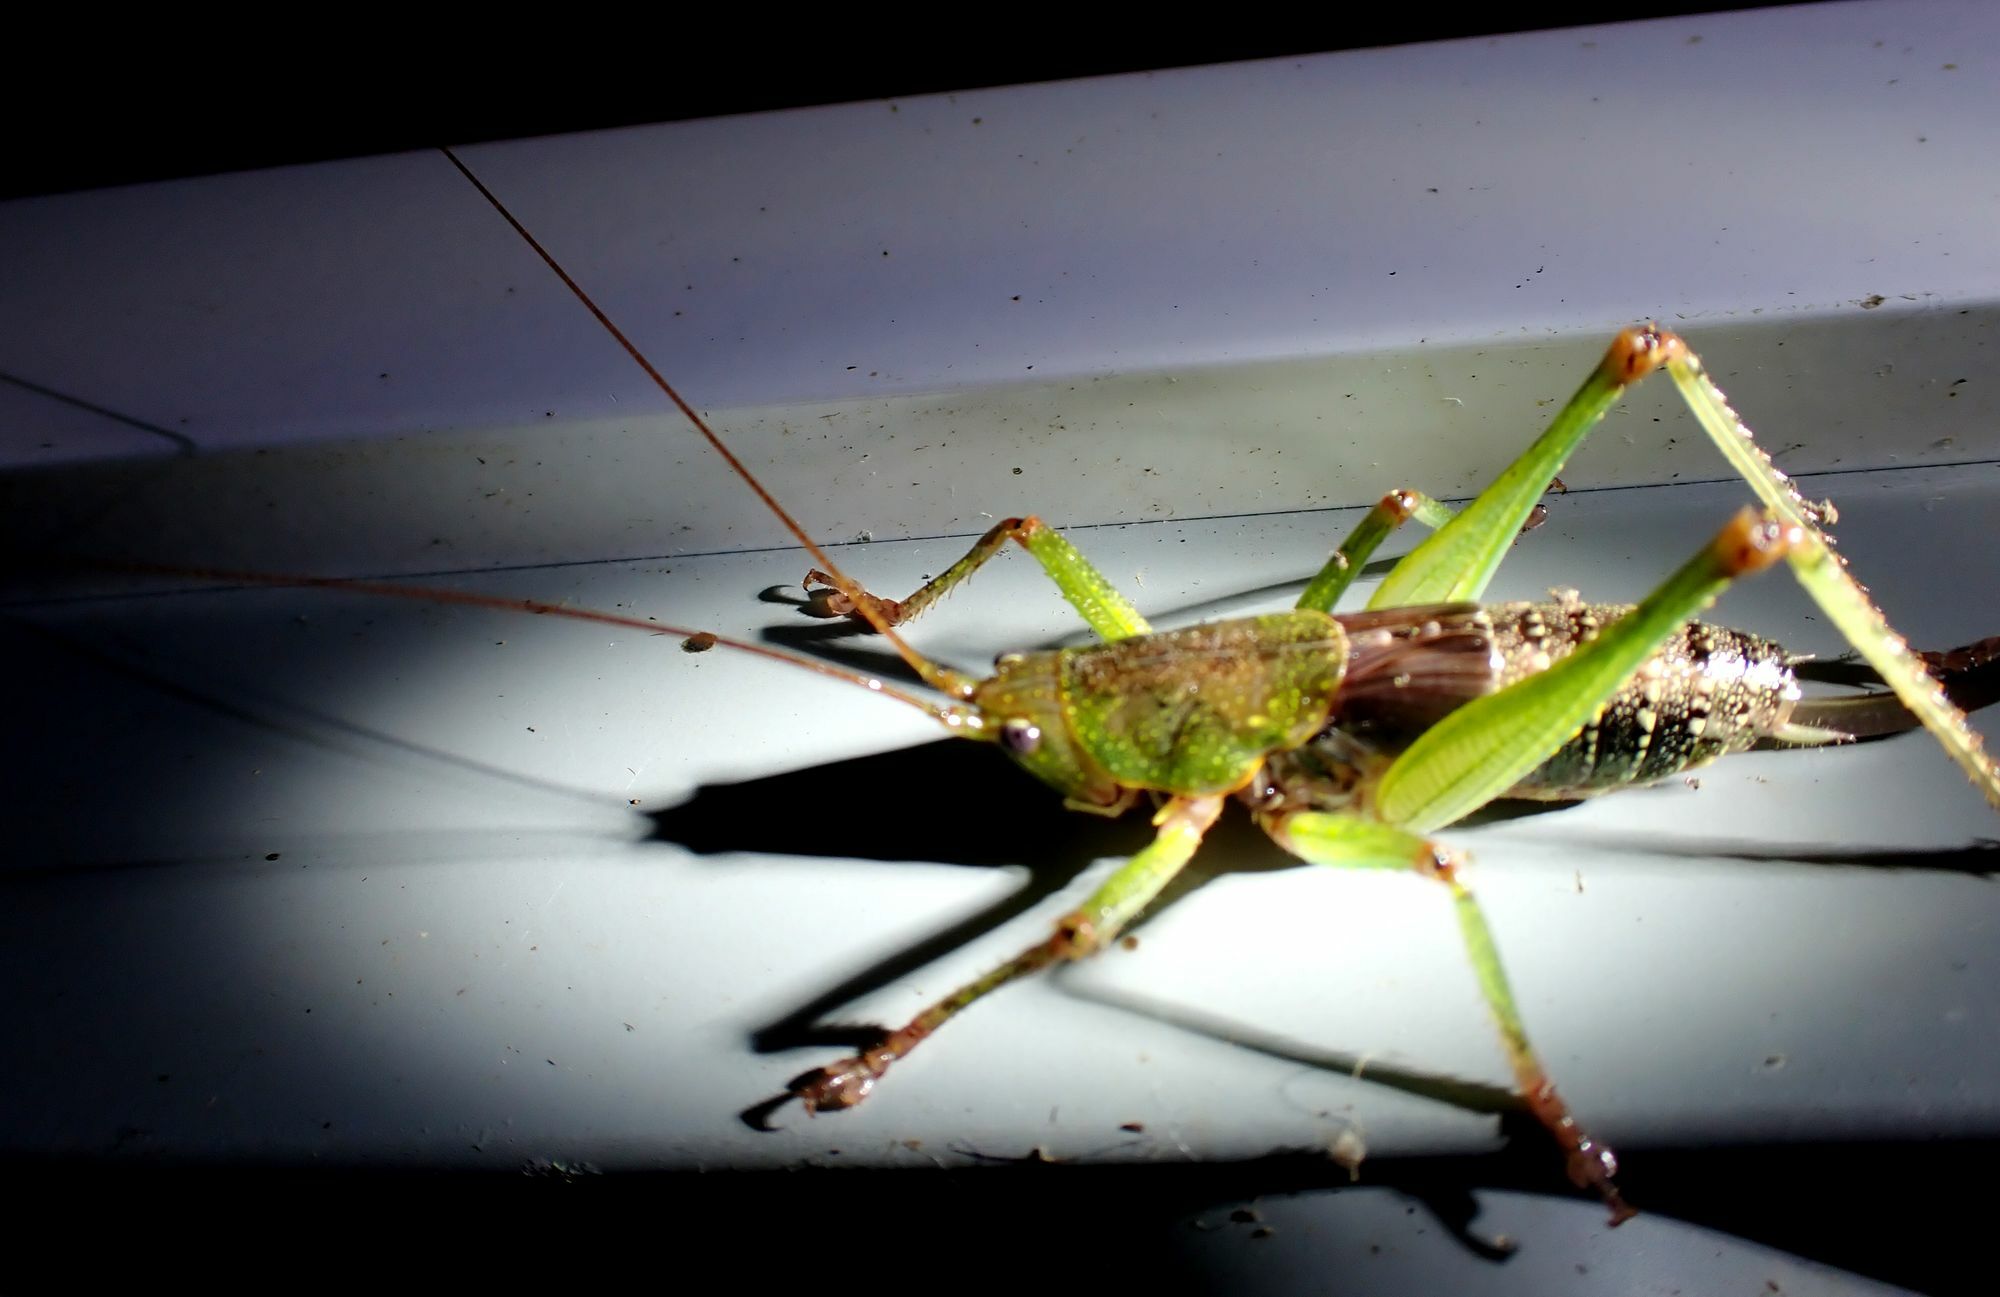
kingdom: Animalia
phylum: Arthropoda
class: Insecta
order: Orthoptera
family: Tettigoniidae
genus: Austrosalomona
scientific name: Austrosalomona destructor
